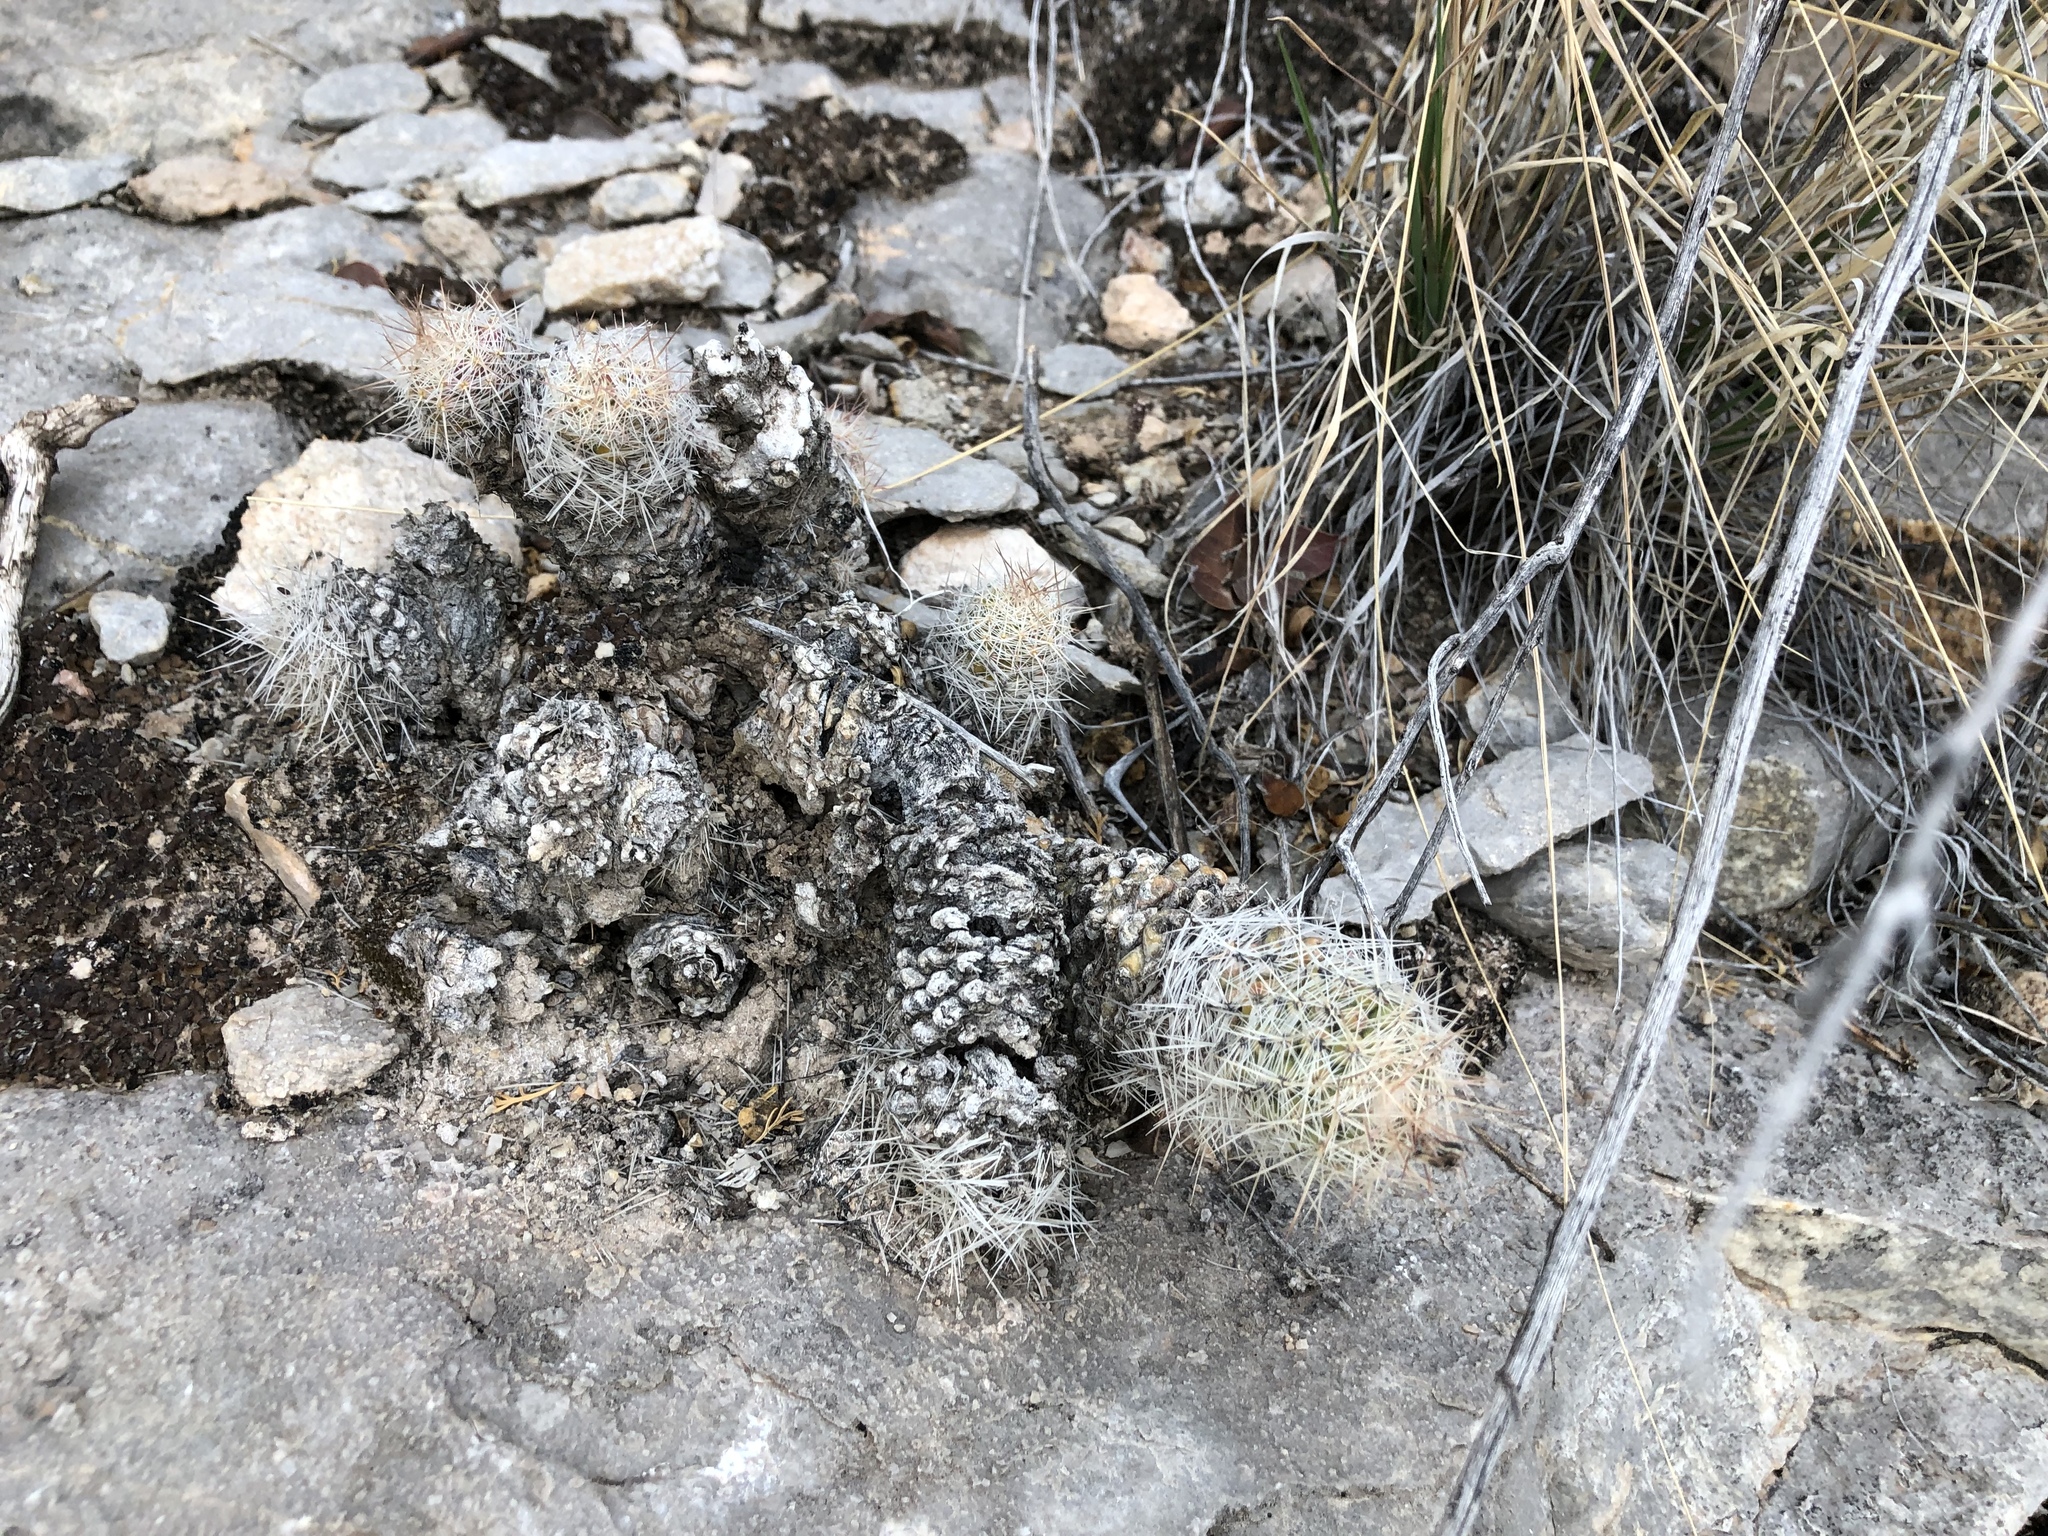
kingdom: Plantae
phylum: Tracheophyta
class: Magnoliopsida
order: Caryophyllales
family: Cactaceae
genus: Pelecyphora
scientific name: Pelecyphora tuberculosa
